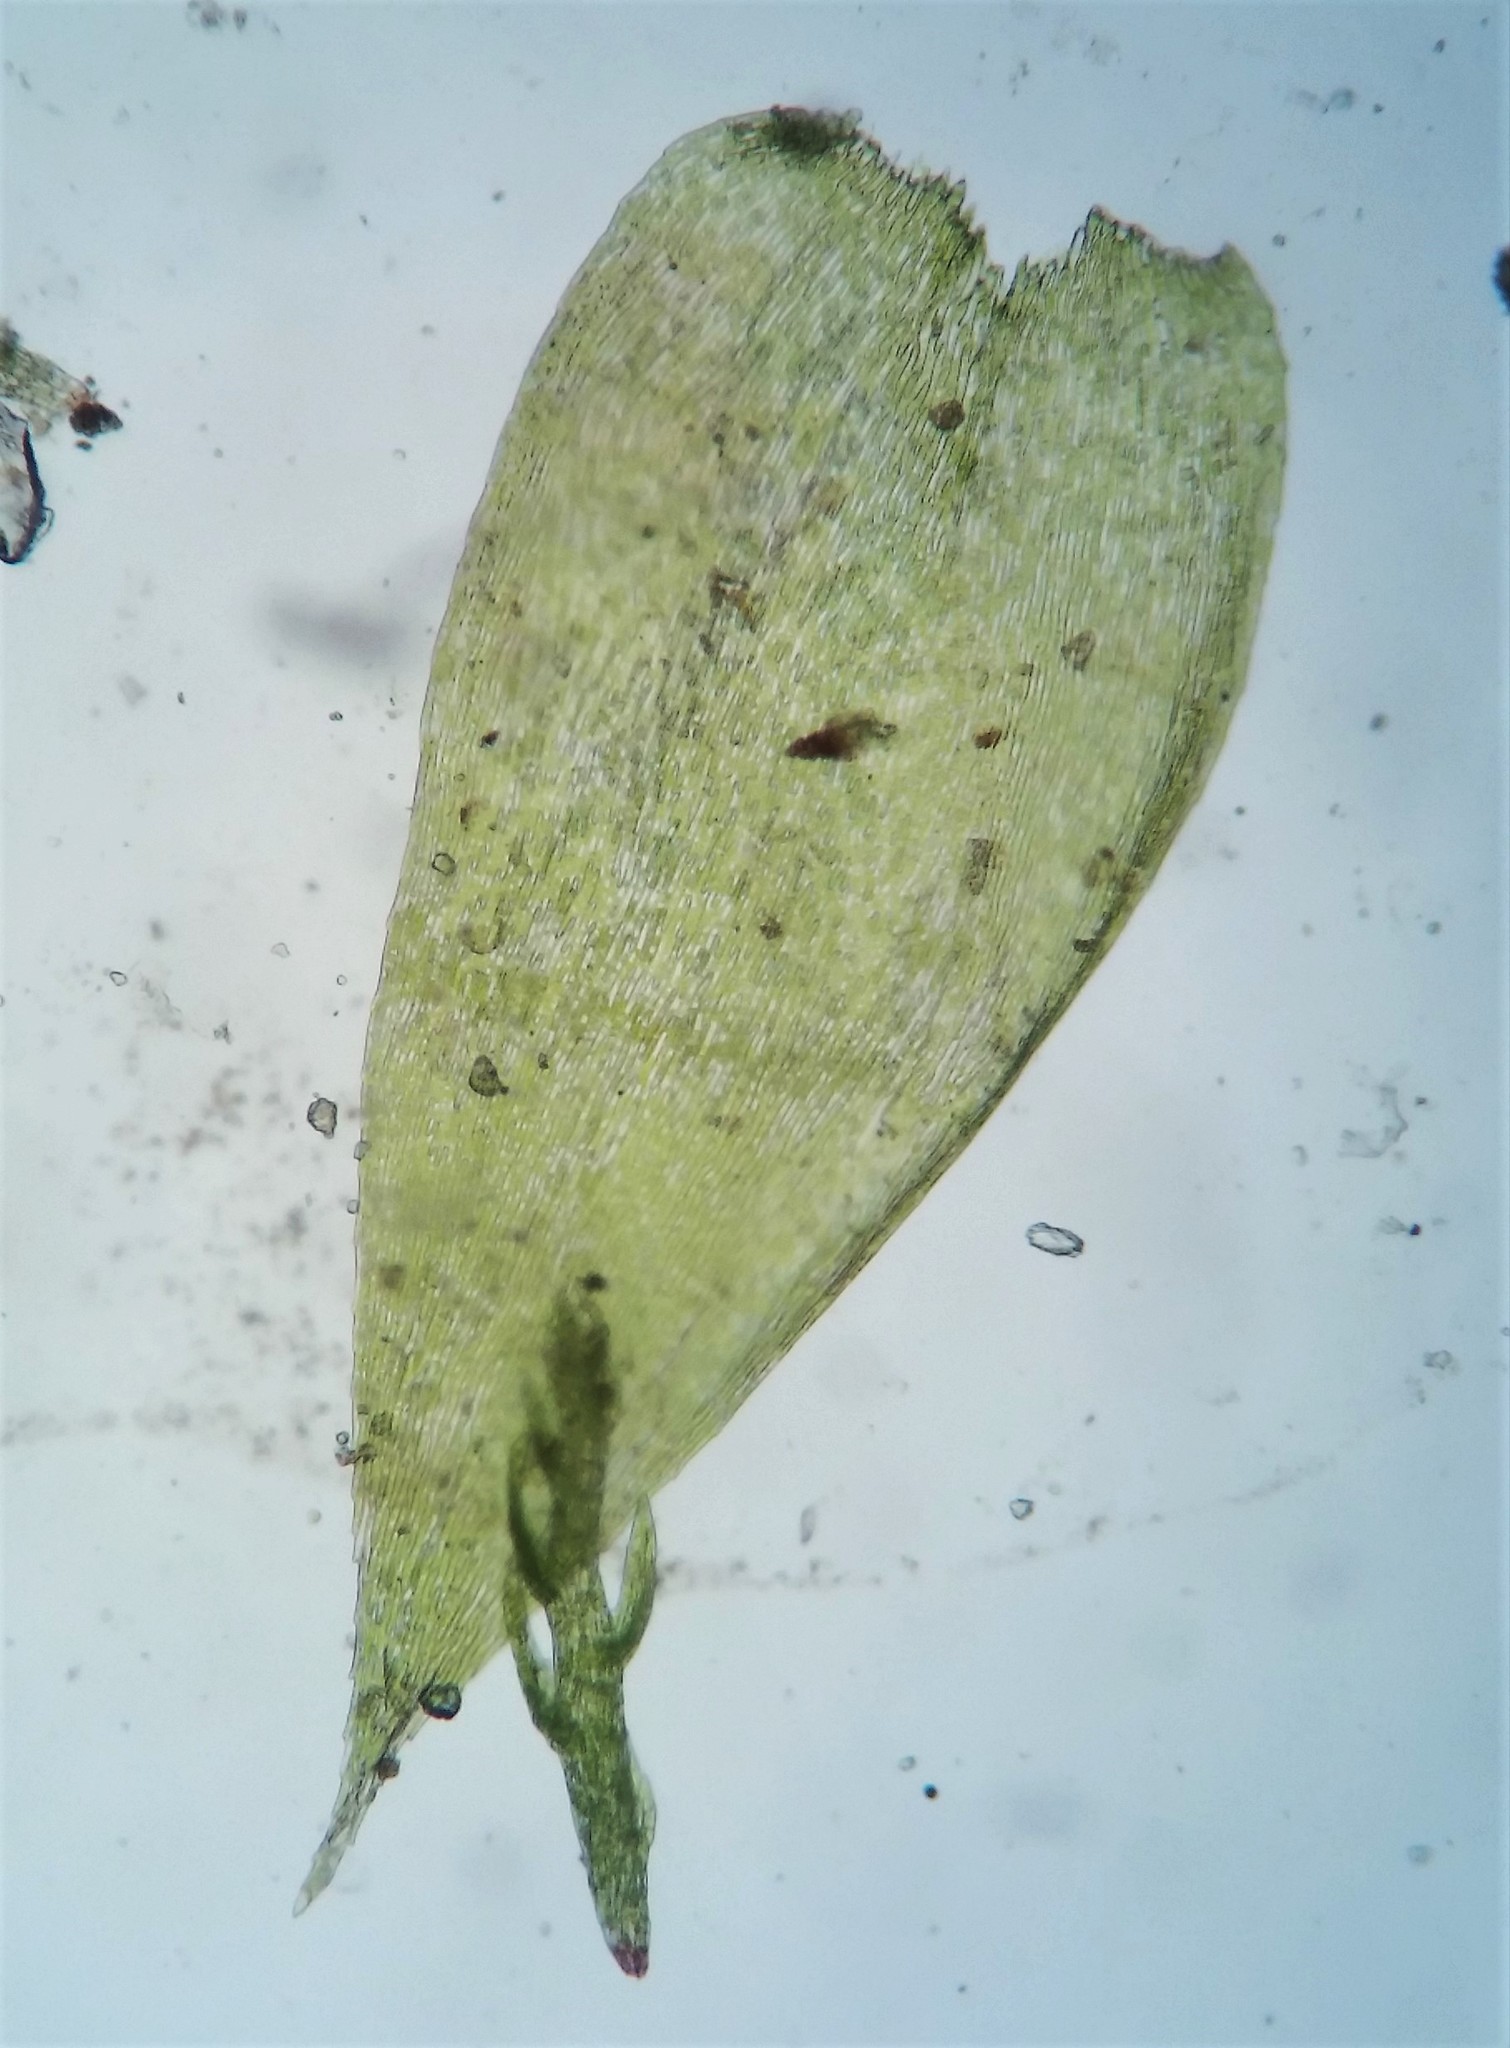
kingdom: Plantae
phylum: Bryophyta
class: Bryopsida
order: Hypnales
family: Plagiotheciaceae
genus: Pseudotaxiphyllum
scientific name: Pseudotaxiphyllum elegans
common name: Elegant silk moss
